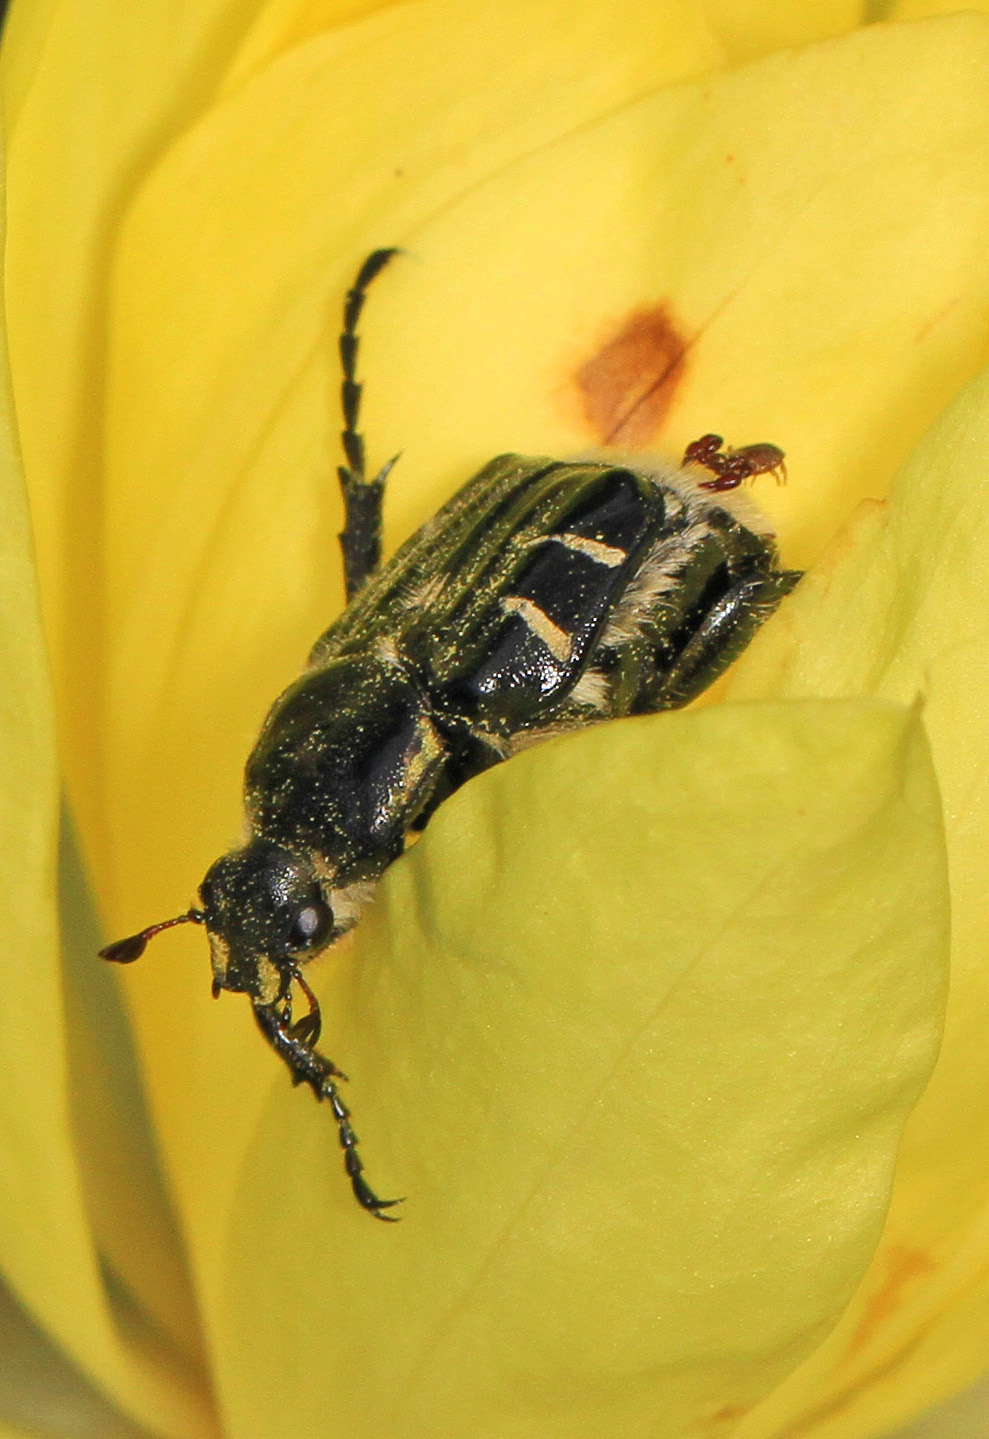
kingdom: Animalia
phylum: Arthropoda
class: Insecta
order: Coleoptera
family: Scarabaeidae
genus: Trichiotinus
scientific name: Trichiotinus texanus
